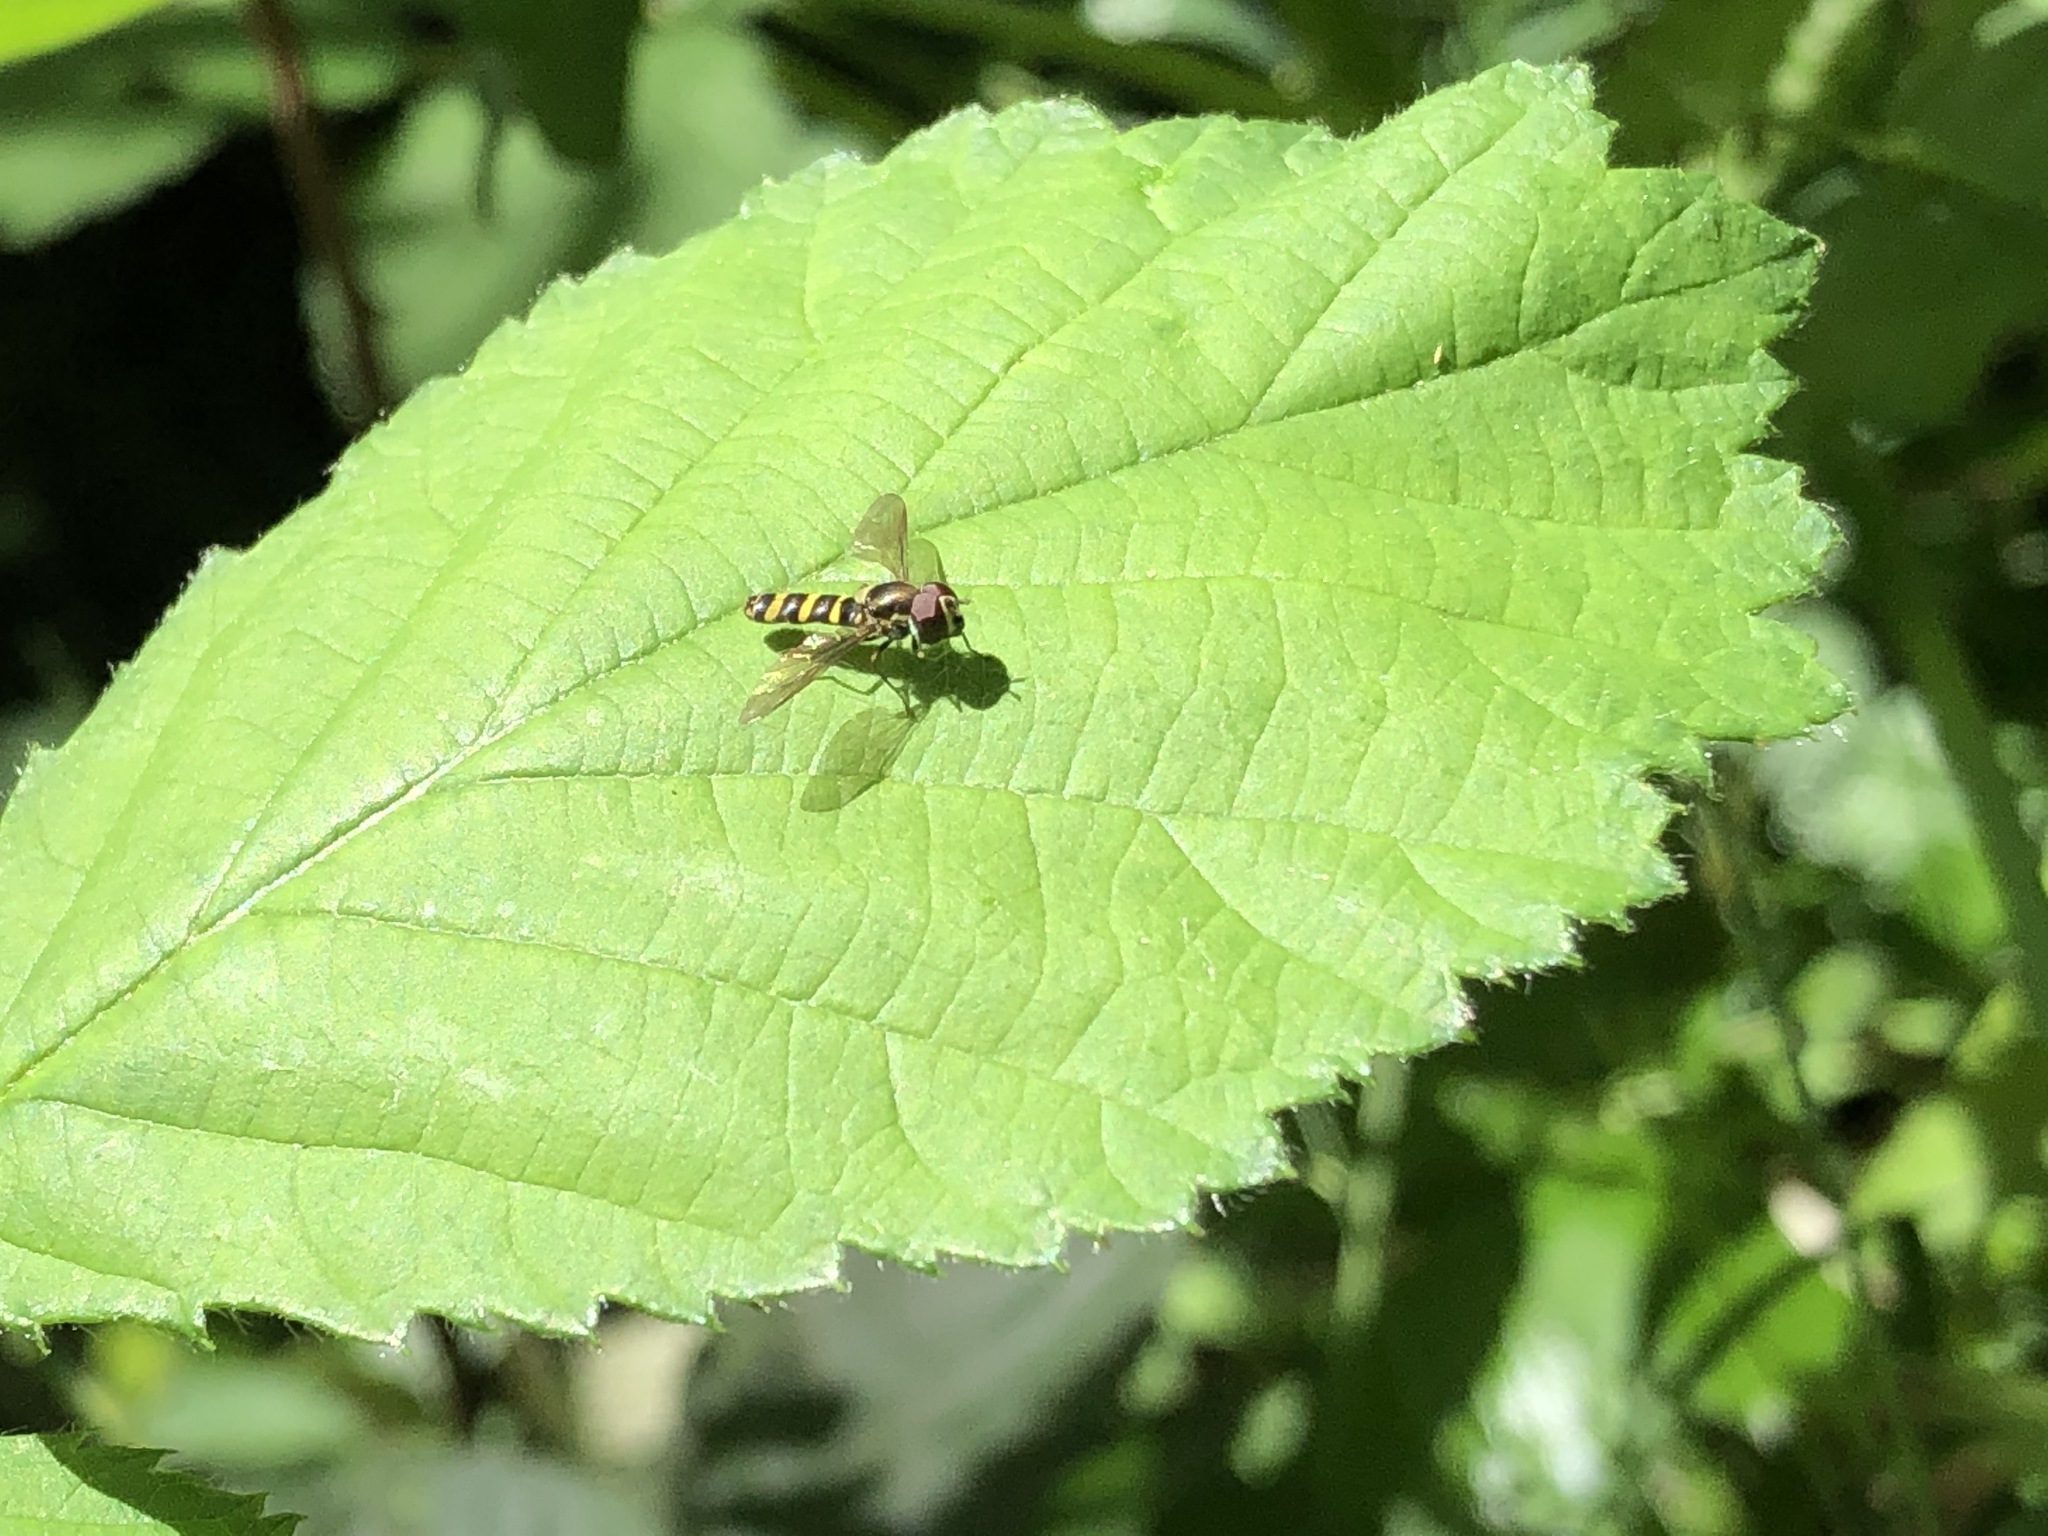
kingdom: Animalia
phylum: Arthropoda
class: Insecta
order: Diptera
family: Syrphidae
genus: Fazia
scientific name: Fazia micrura
